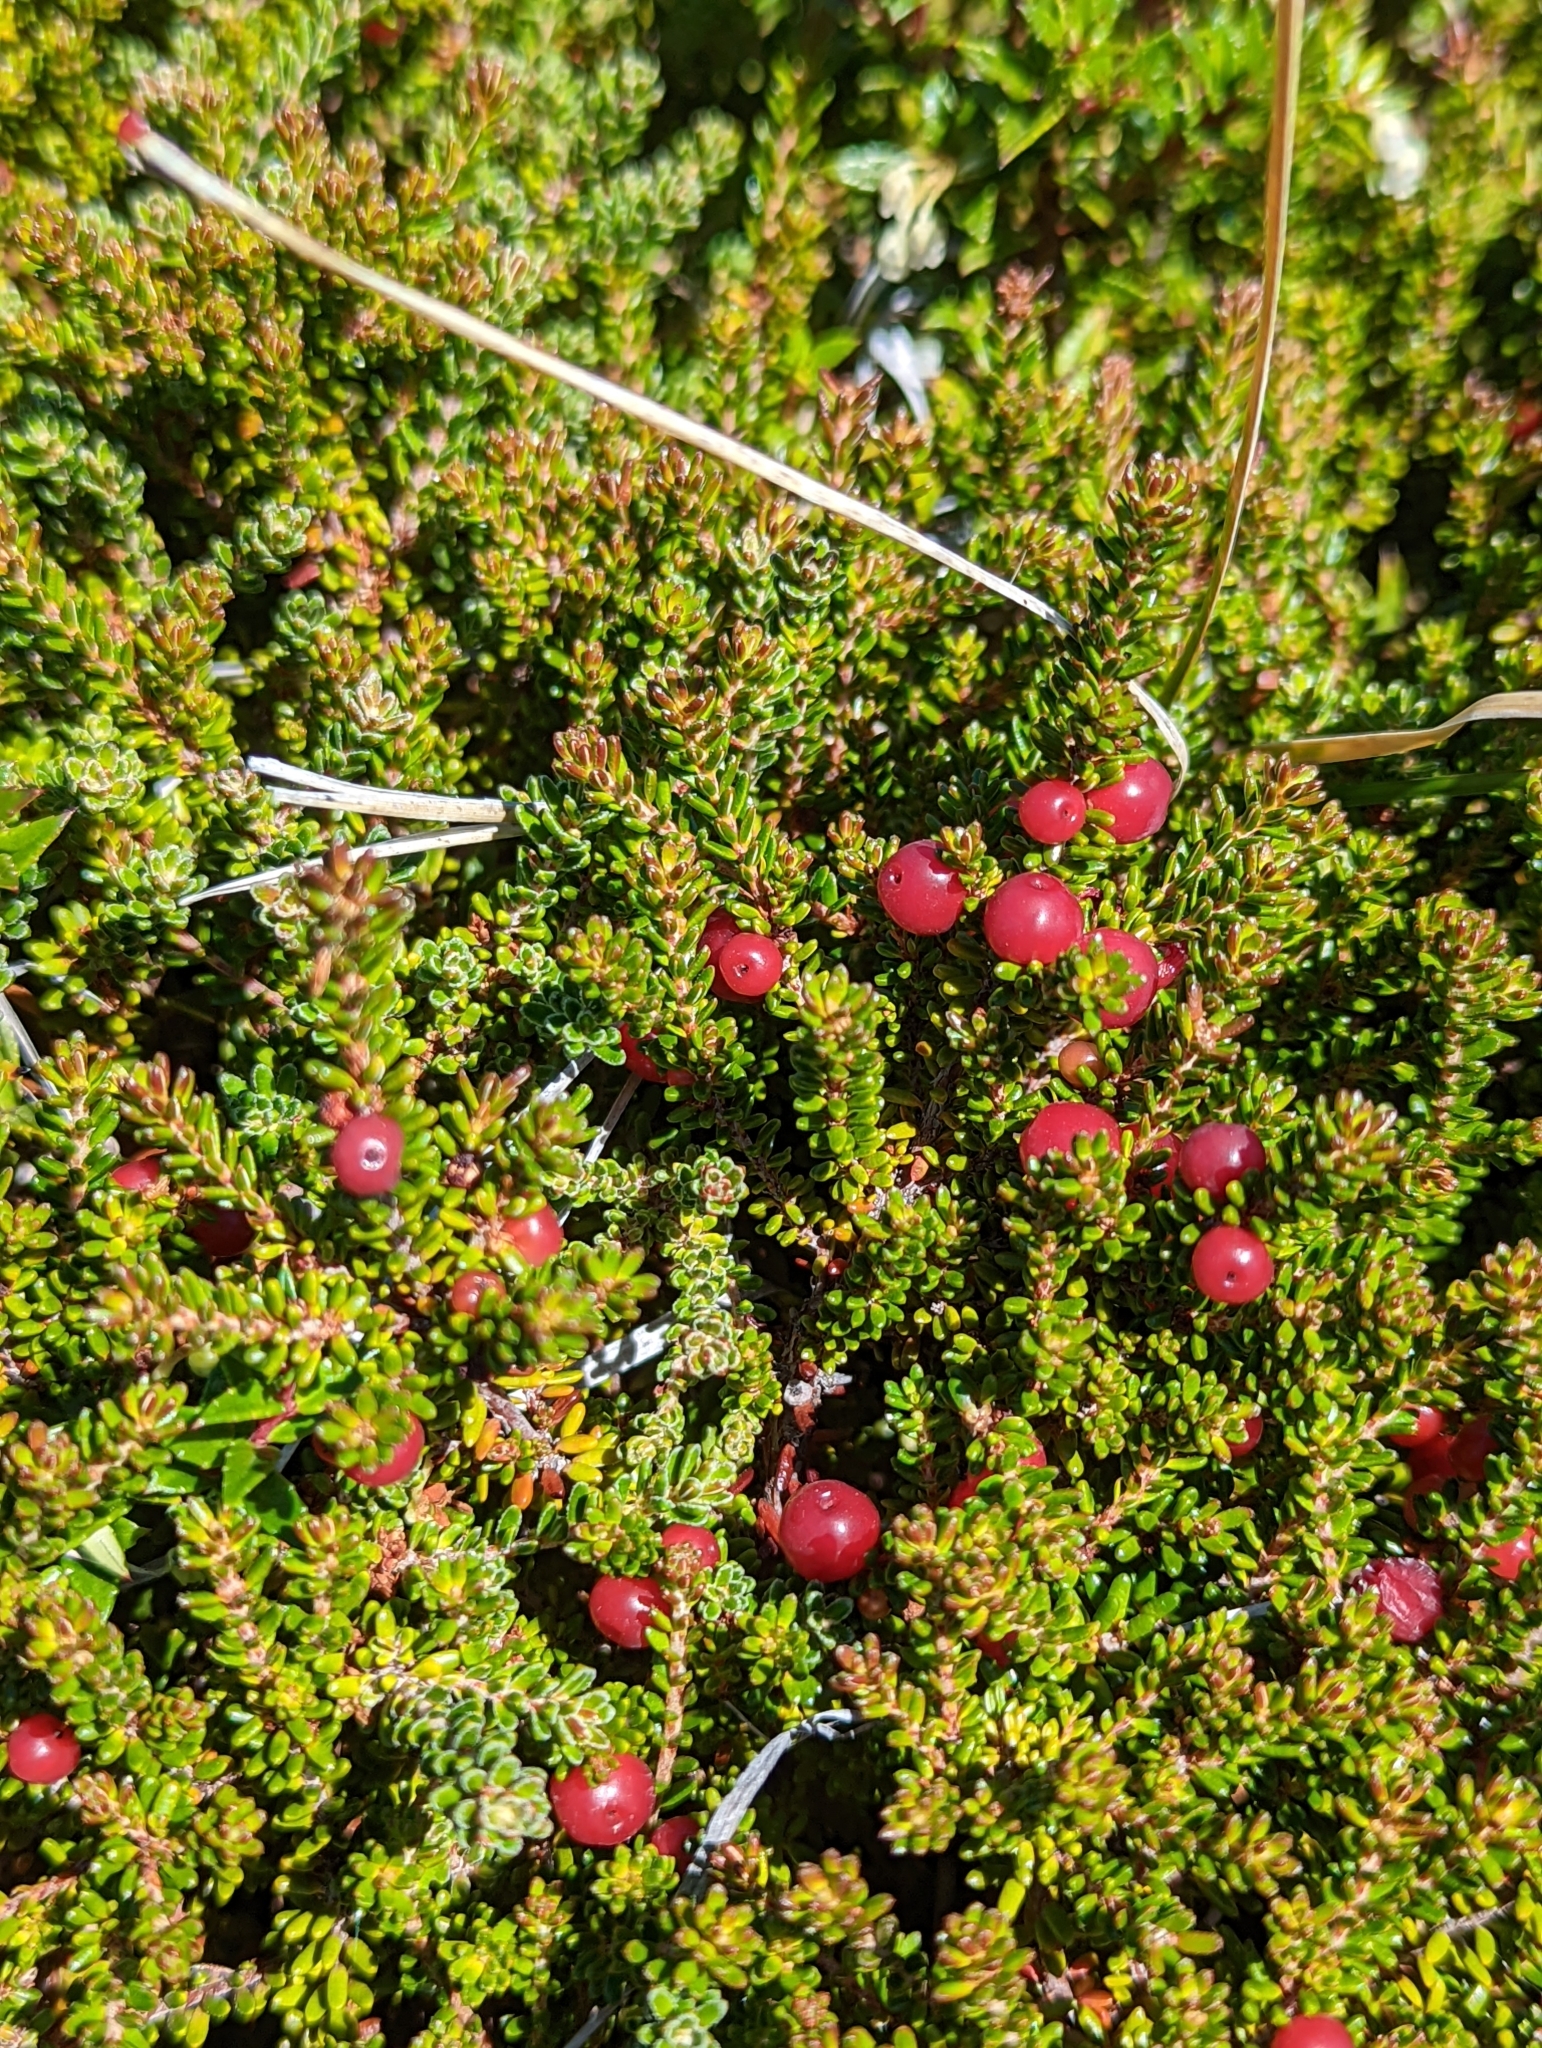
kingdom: Plantae
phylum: Tracheophyta
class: Magnoliopsida
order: Ericales
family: Ericaceae
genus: Empetrum
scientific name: Empetrum rubrum
